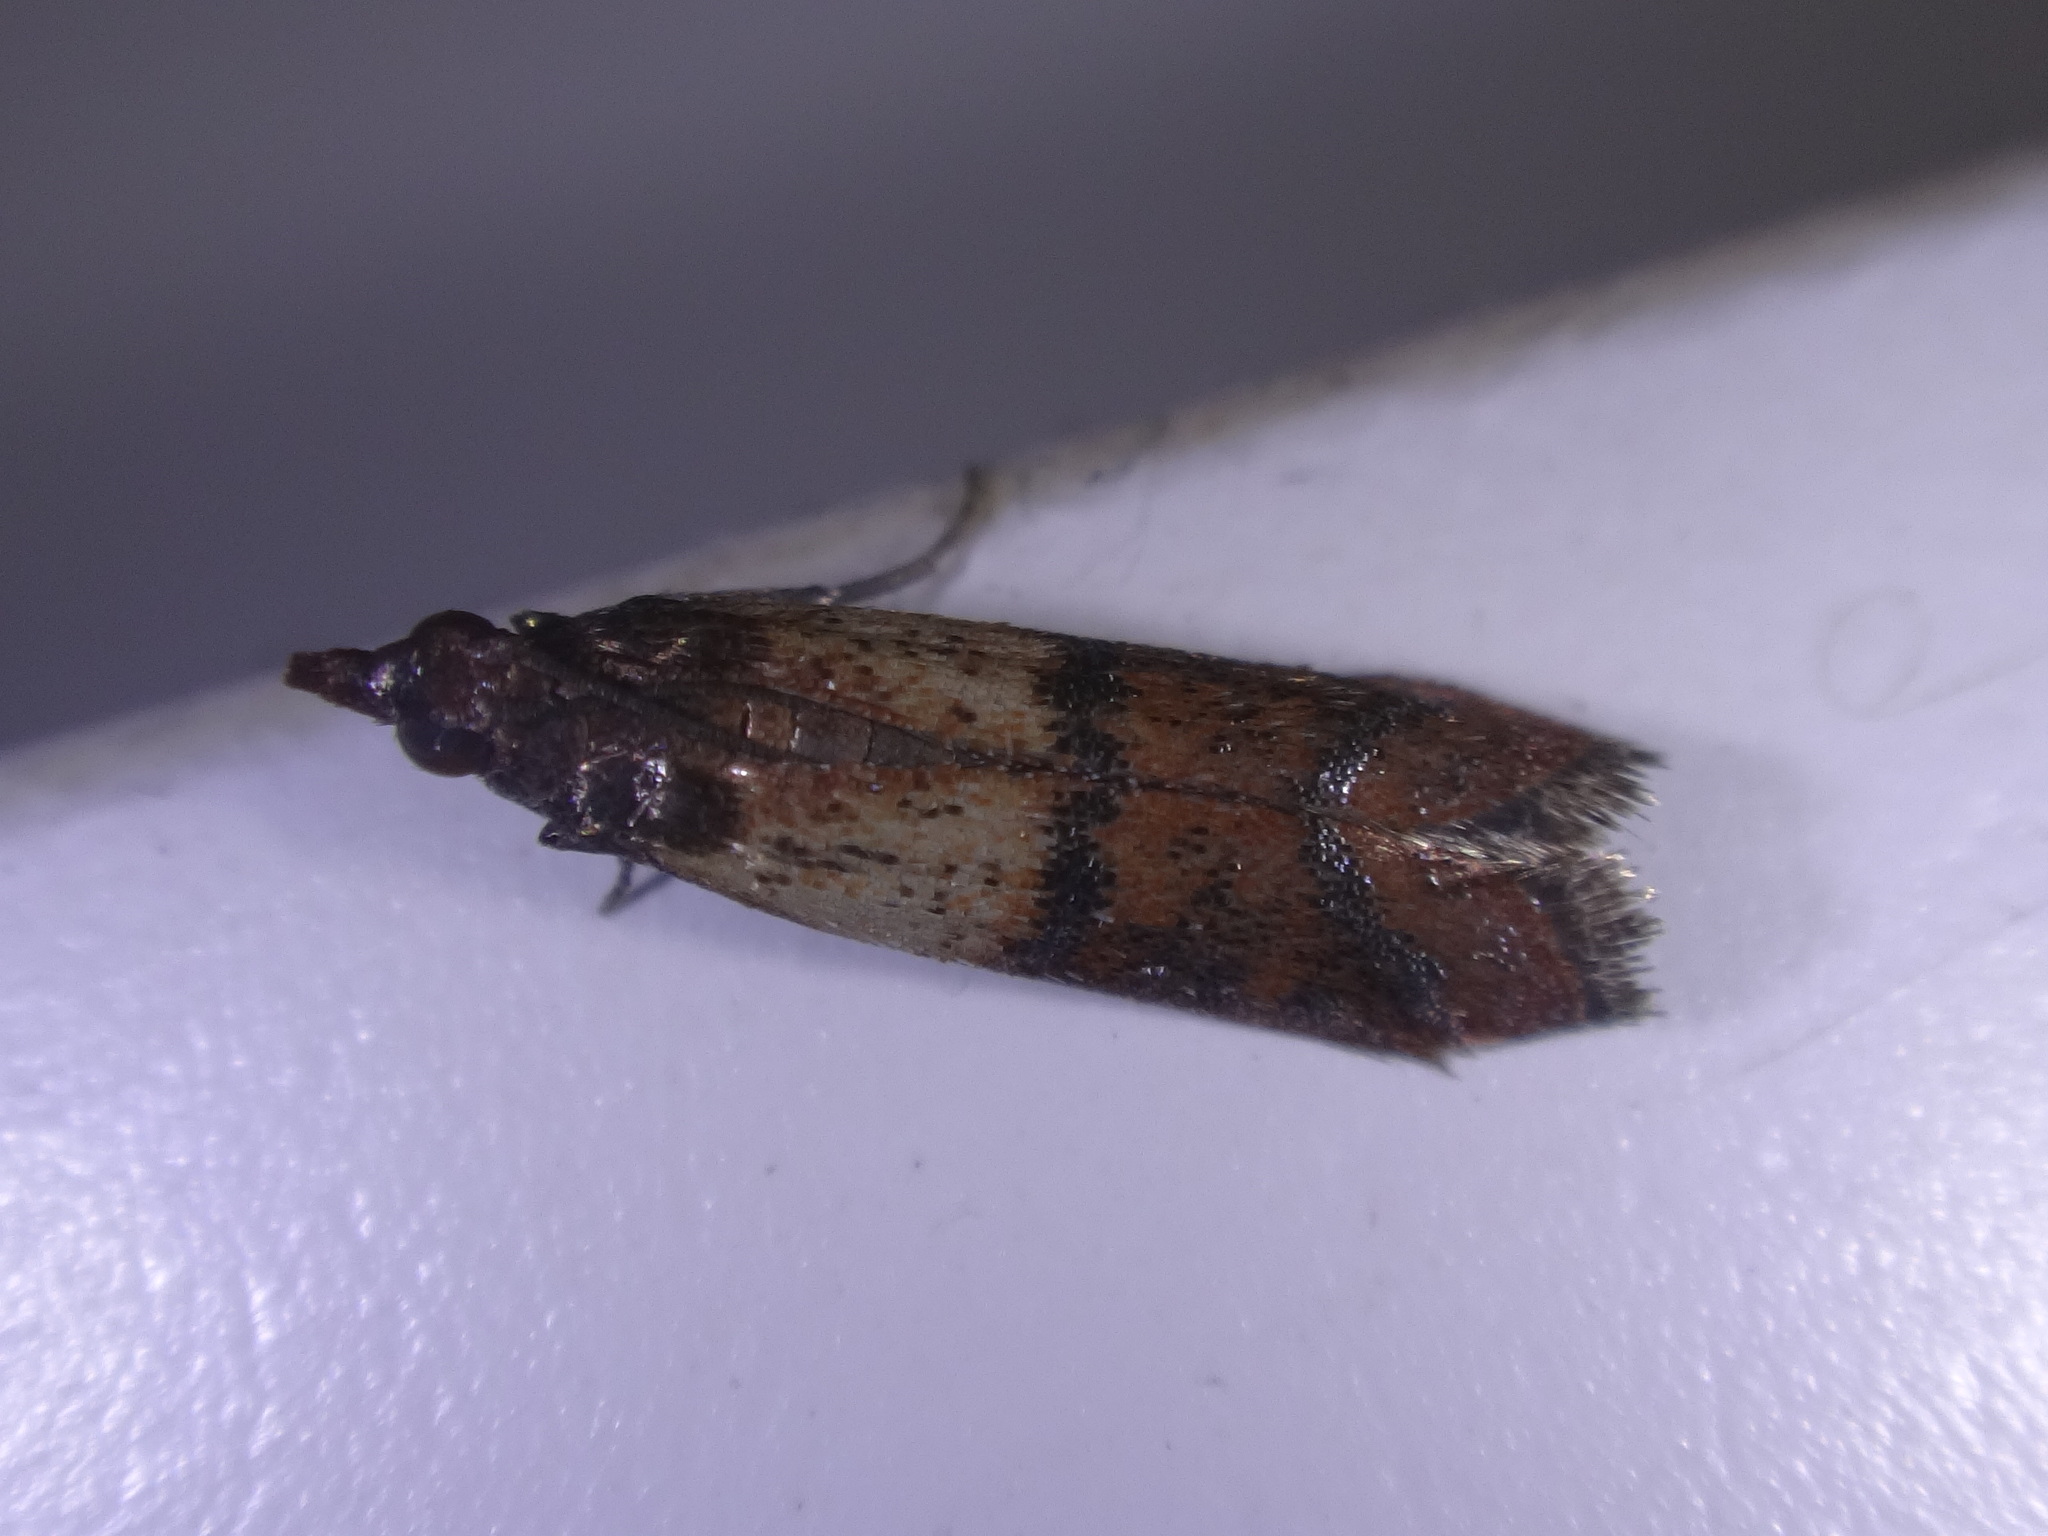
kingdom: Animalia
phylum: Arthropoda
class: Insecta
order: Lepidoptera
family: Pyralidae
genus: Plodia
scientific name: Plodia interpunctella
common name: Indian meal moth
